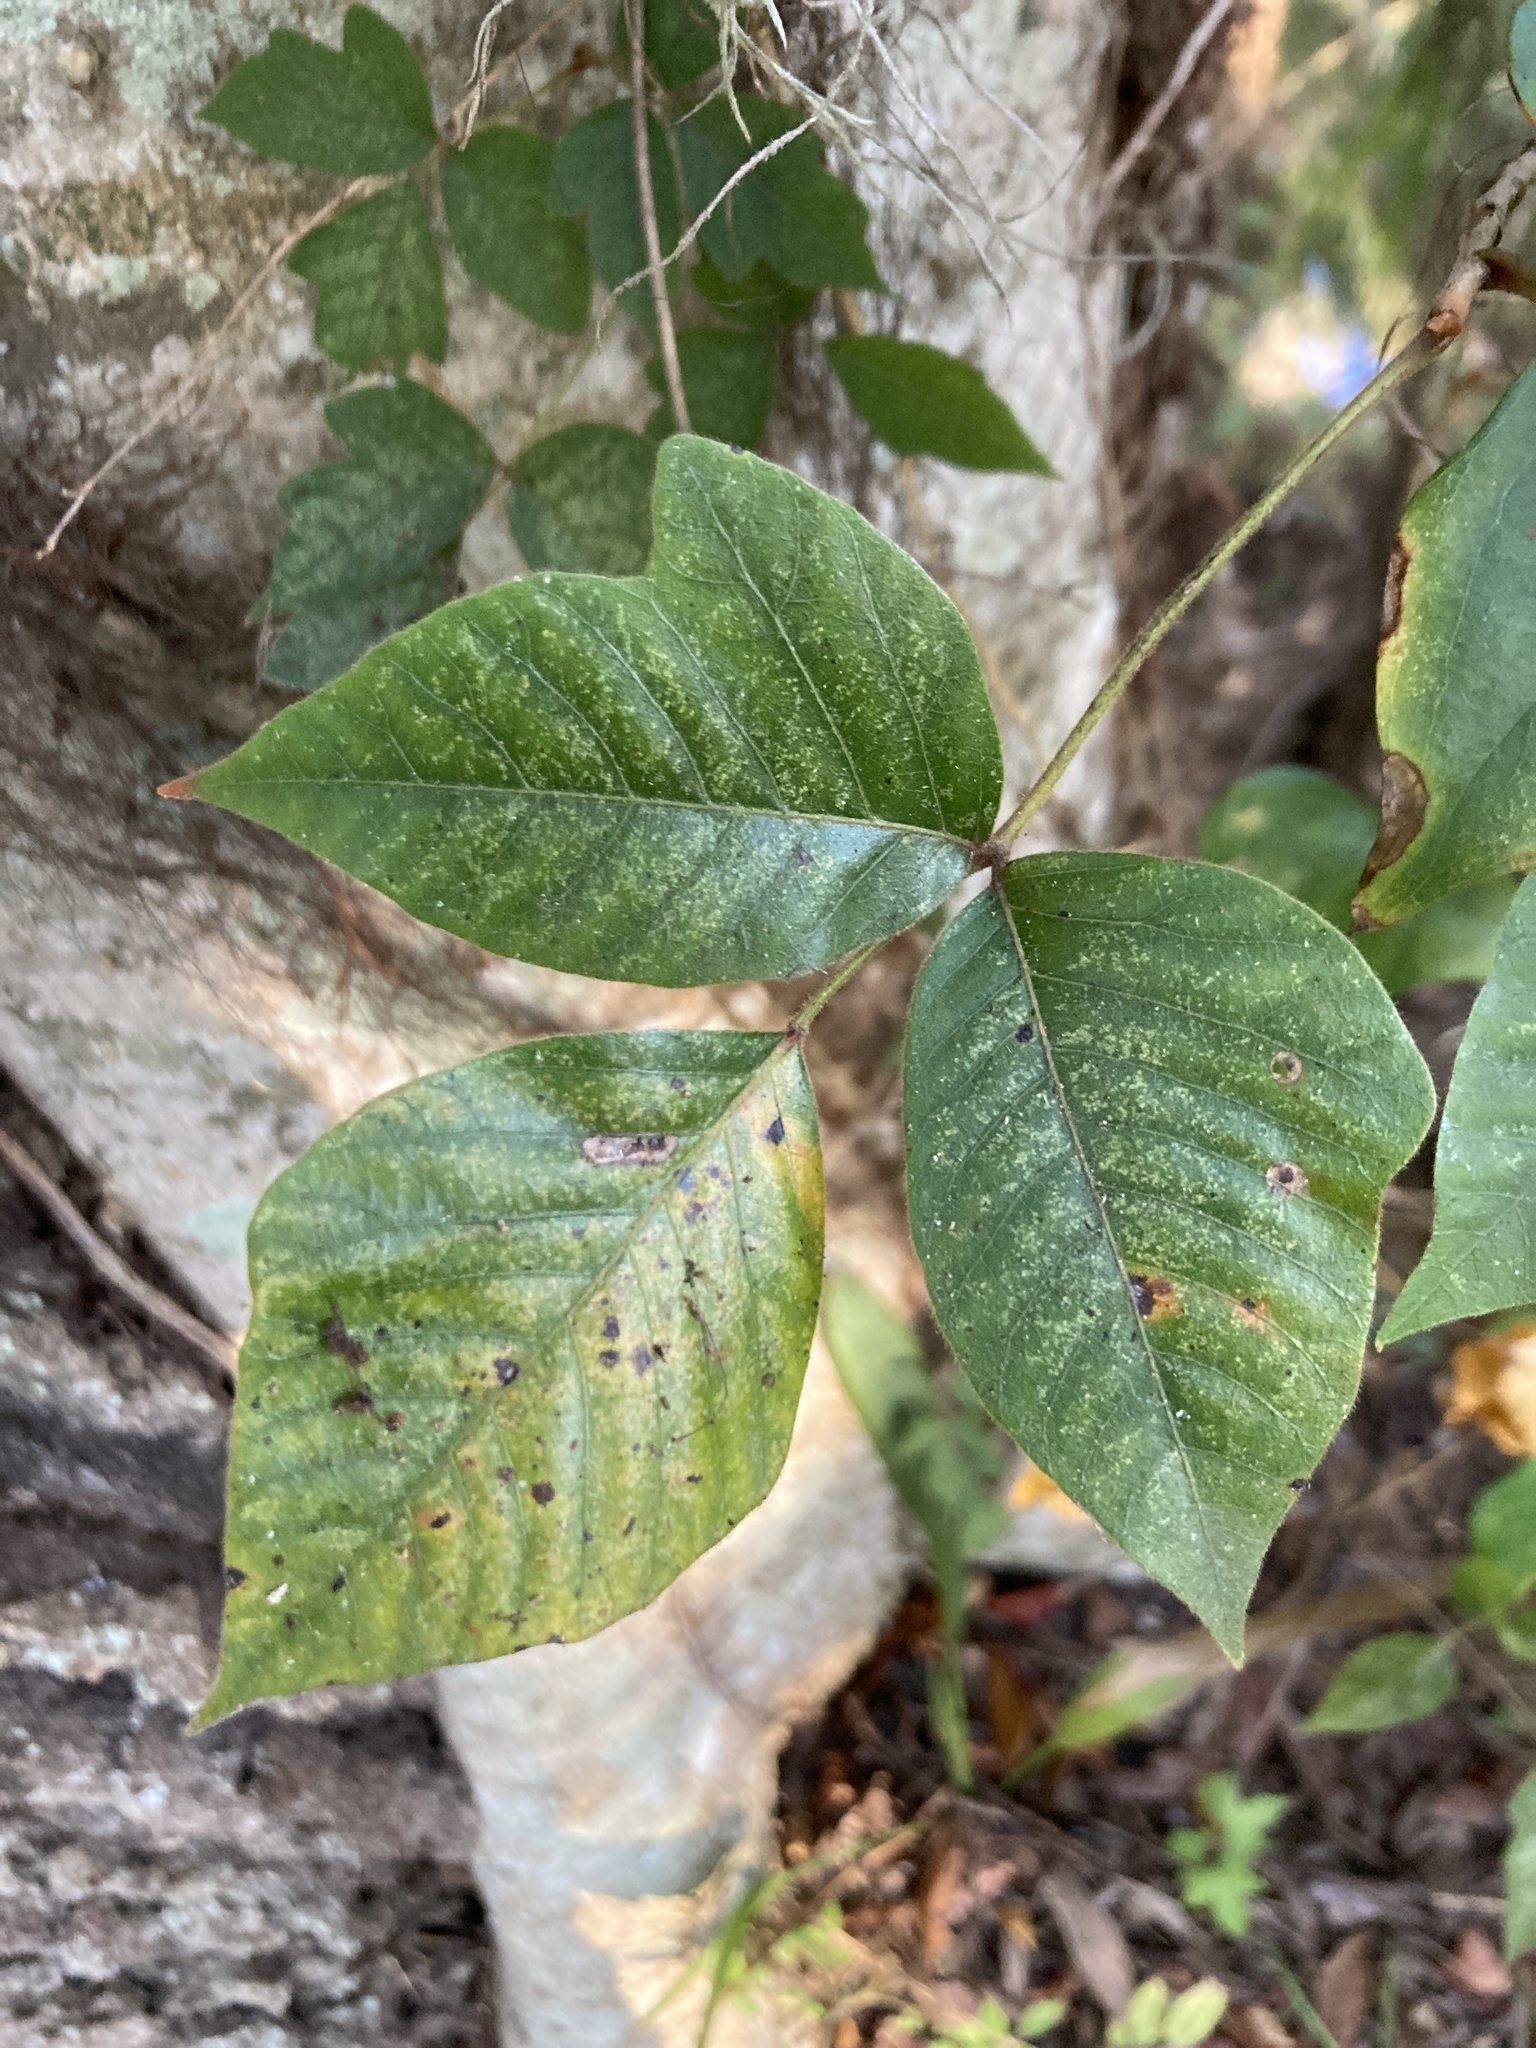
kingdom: Plantae
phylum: Tracheophyta
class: Magnoliopsida
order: Sapindales
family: Anacardiaceae
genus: Toxicodendron
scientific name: Toxicodendron radicans
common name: Poison ivy
